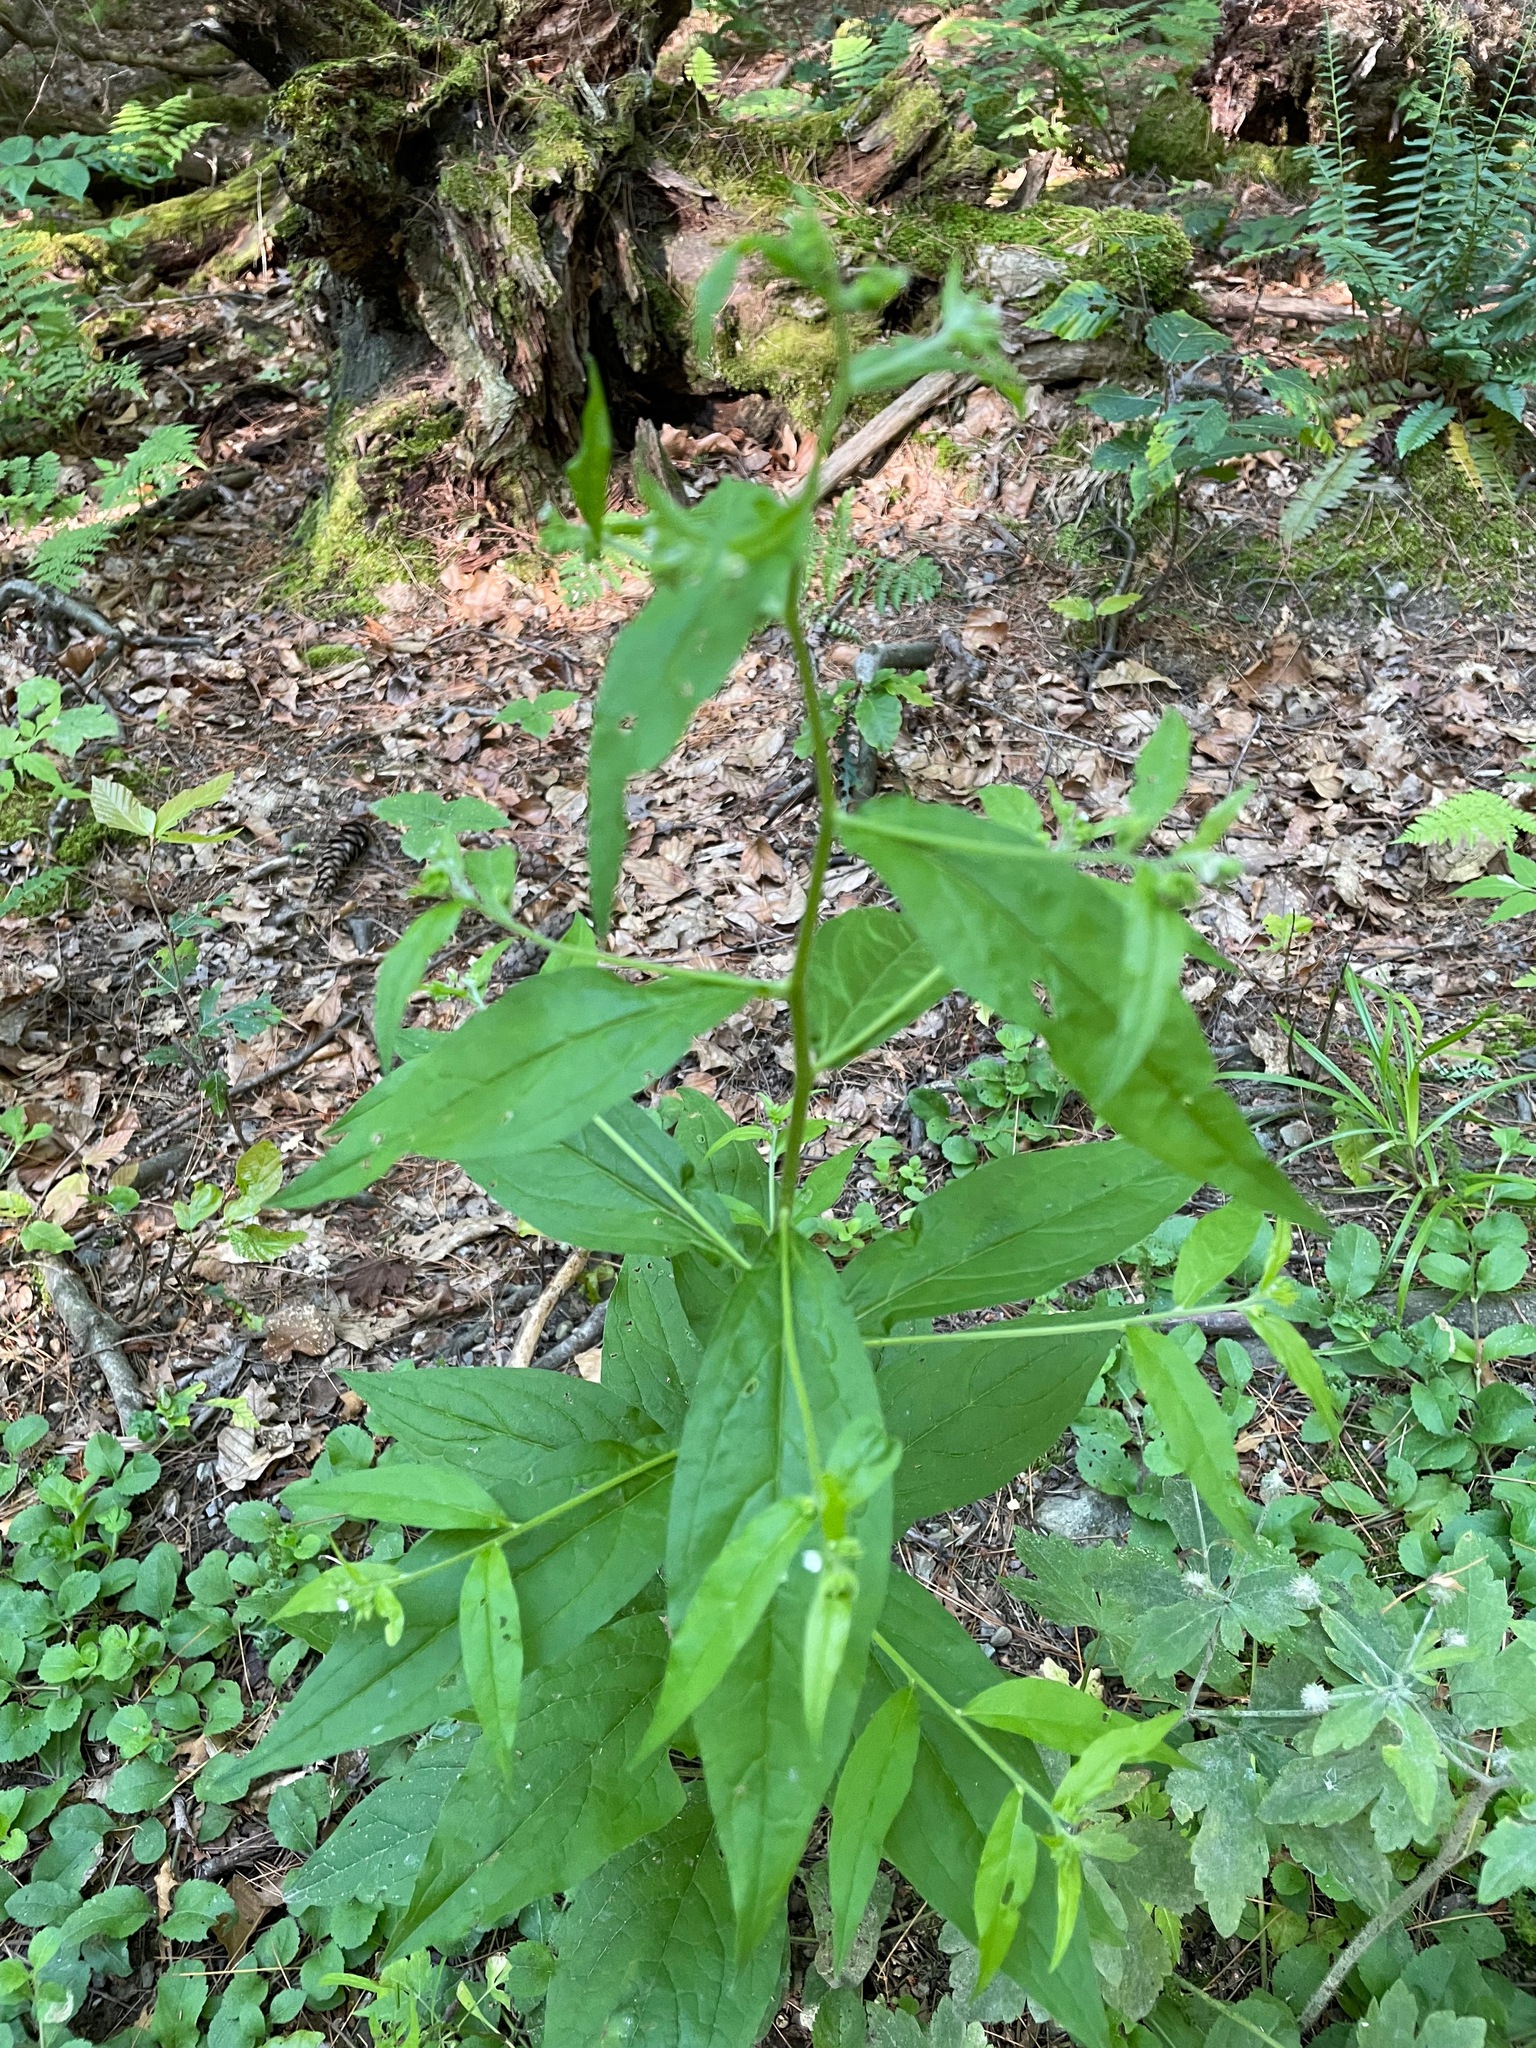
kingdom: Plantae
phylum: Tracheophyta
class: Magnoliopsida
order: Boraginales
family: Boraginaceae
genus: Hackelia
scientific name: Hackelia virginiana
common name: Beggar's-lice
